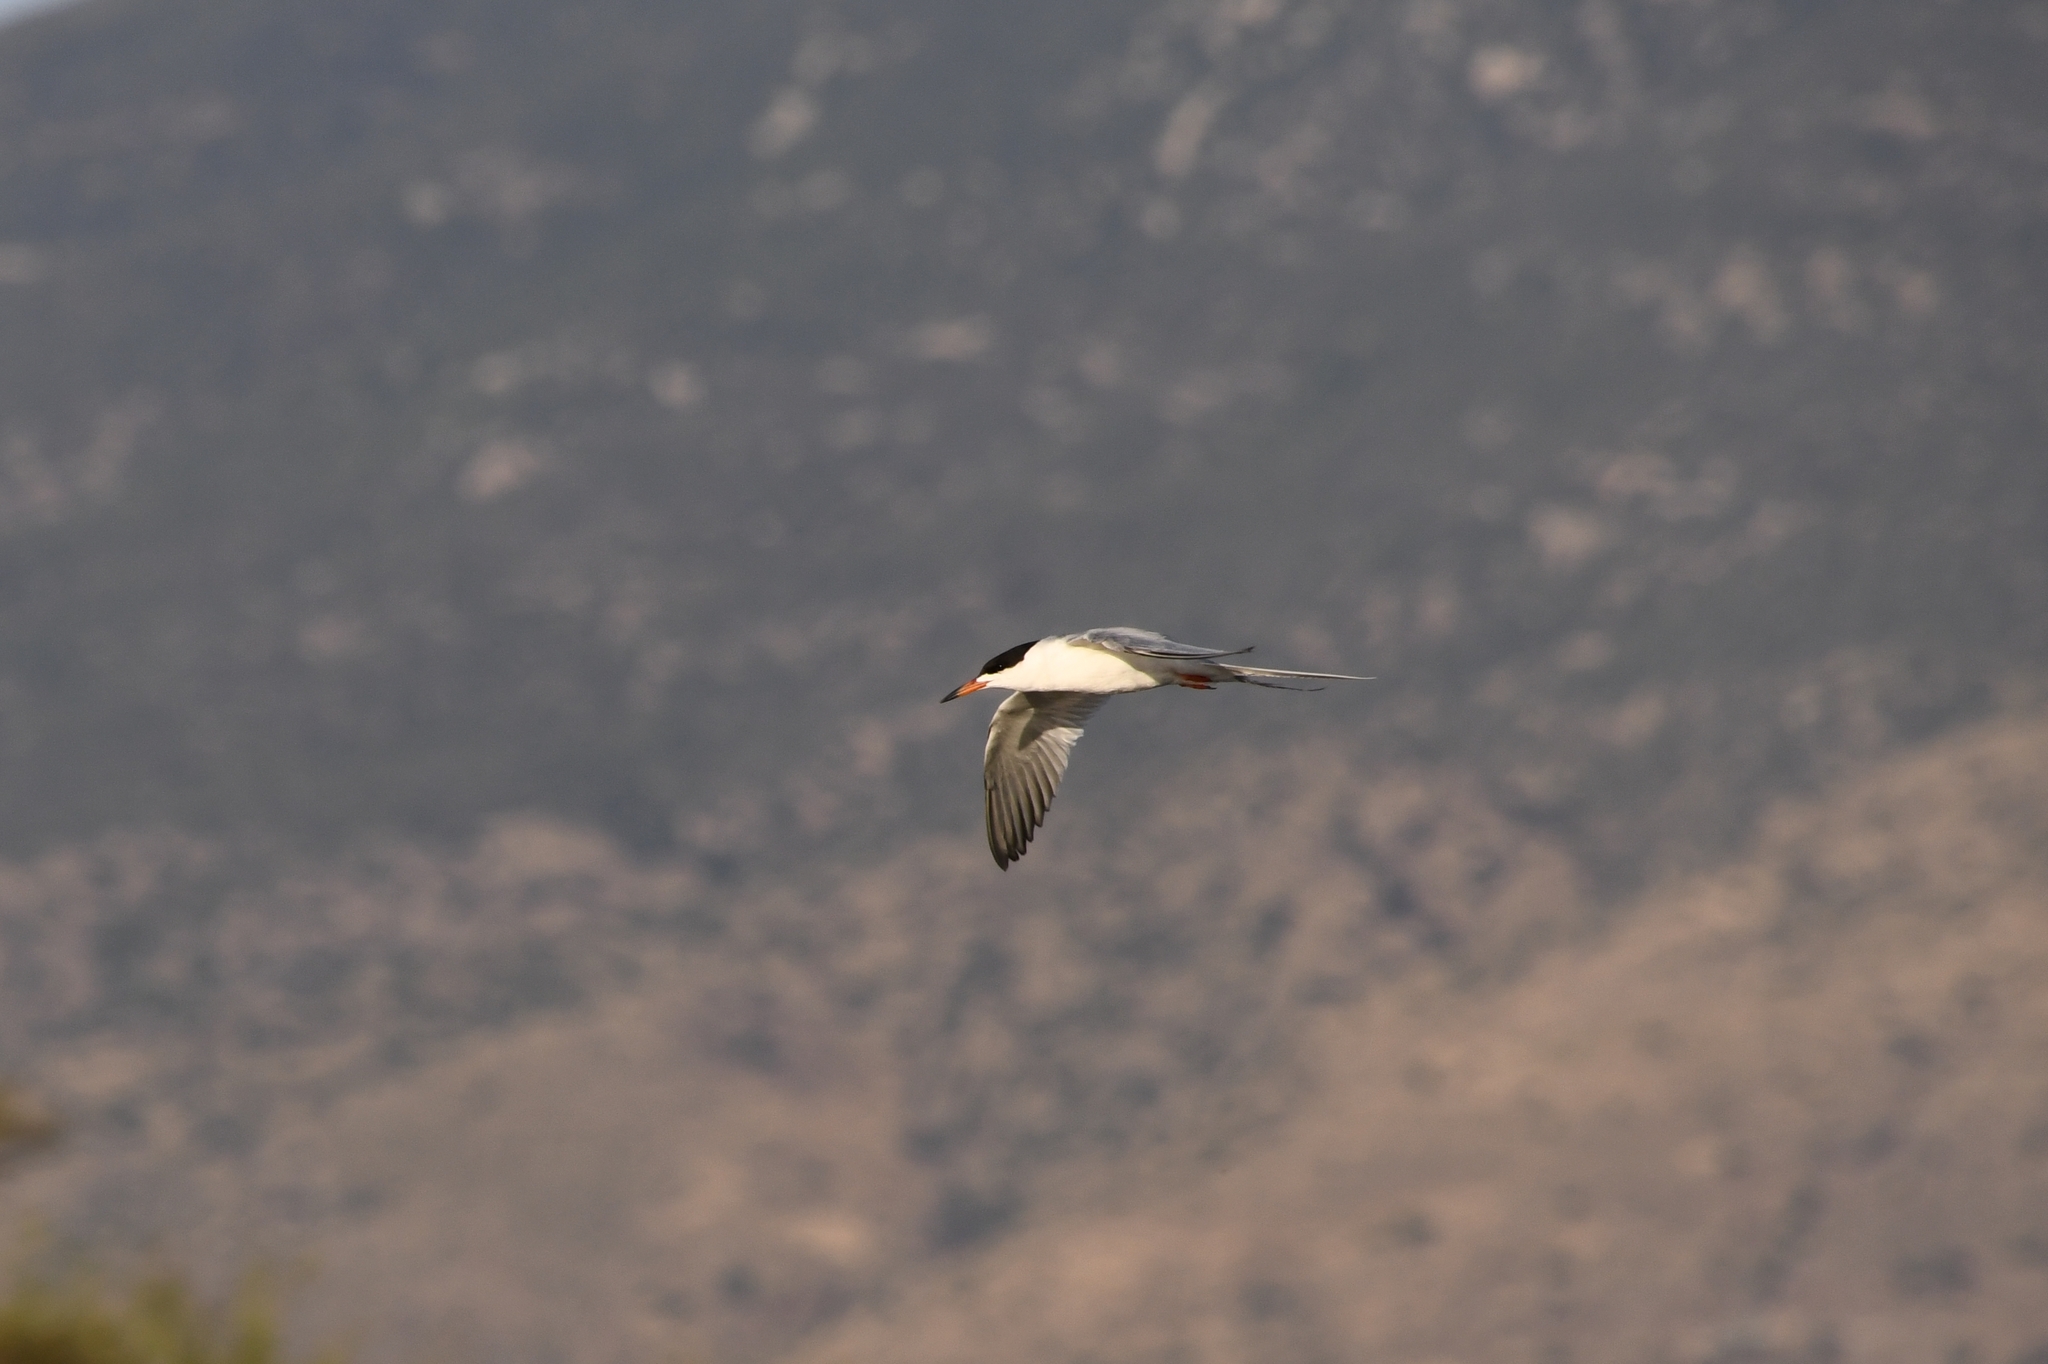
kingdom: Animalia
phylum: Chordata
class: Aves
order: Charadriiformes
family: Laridae
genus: Sterna
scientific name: Sterna forsteri
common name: Forster's tern
